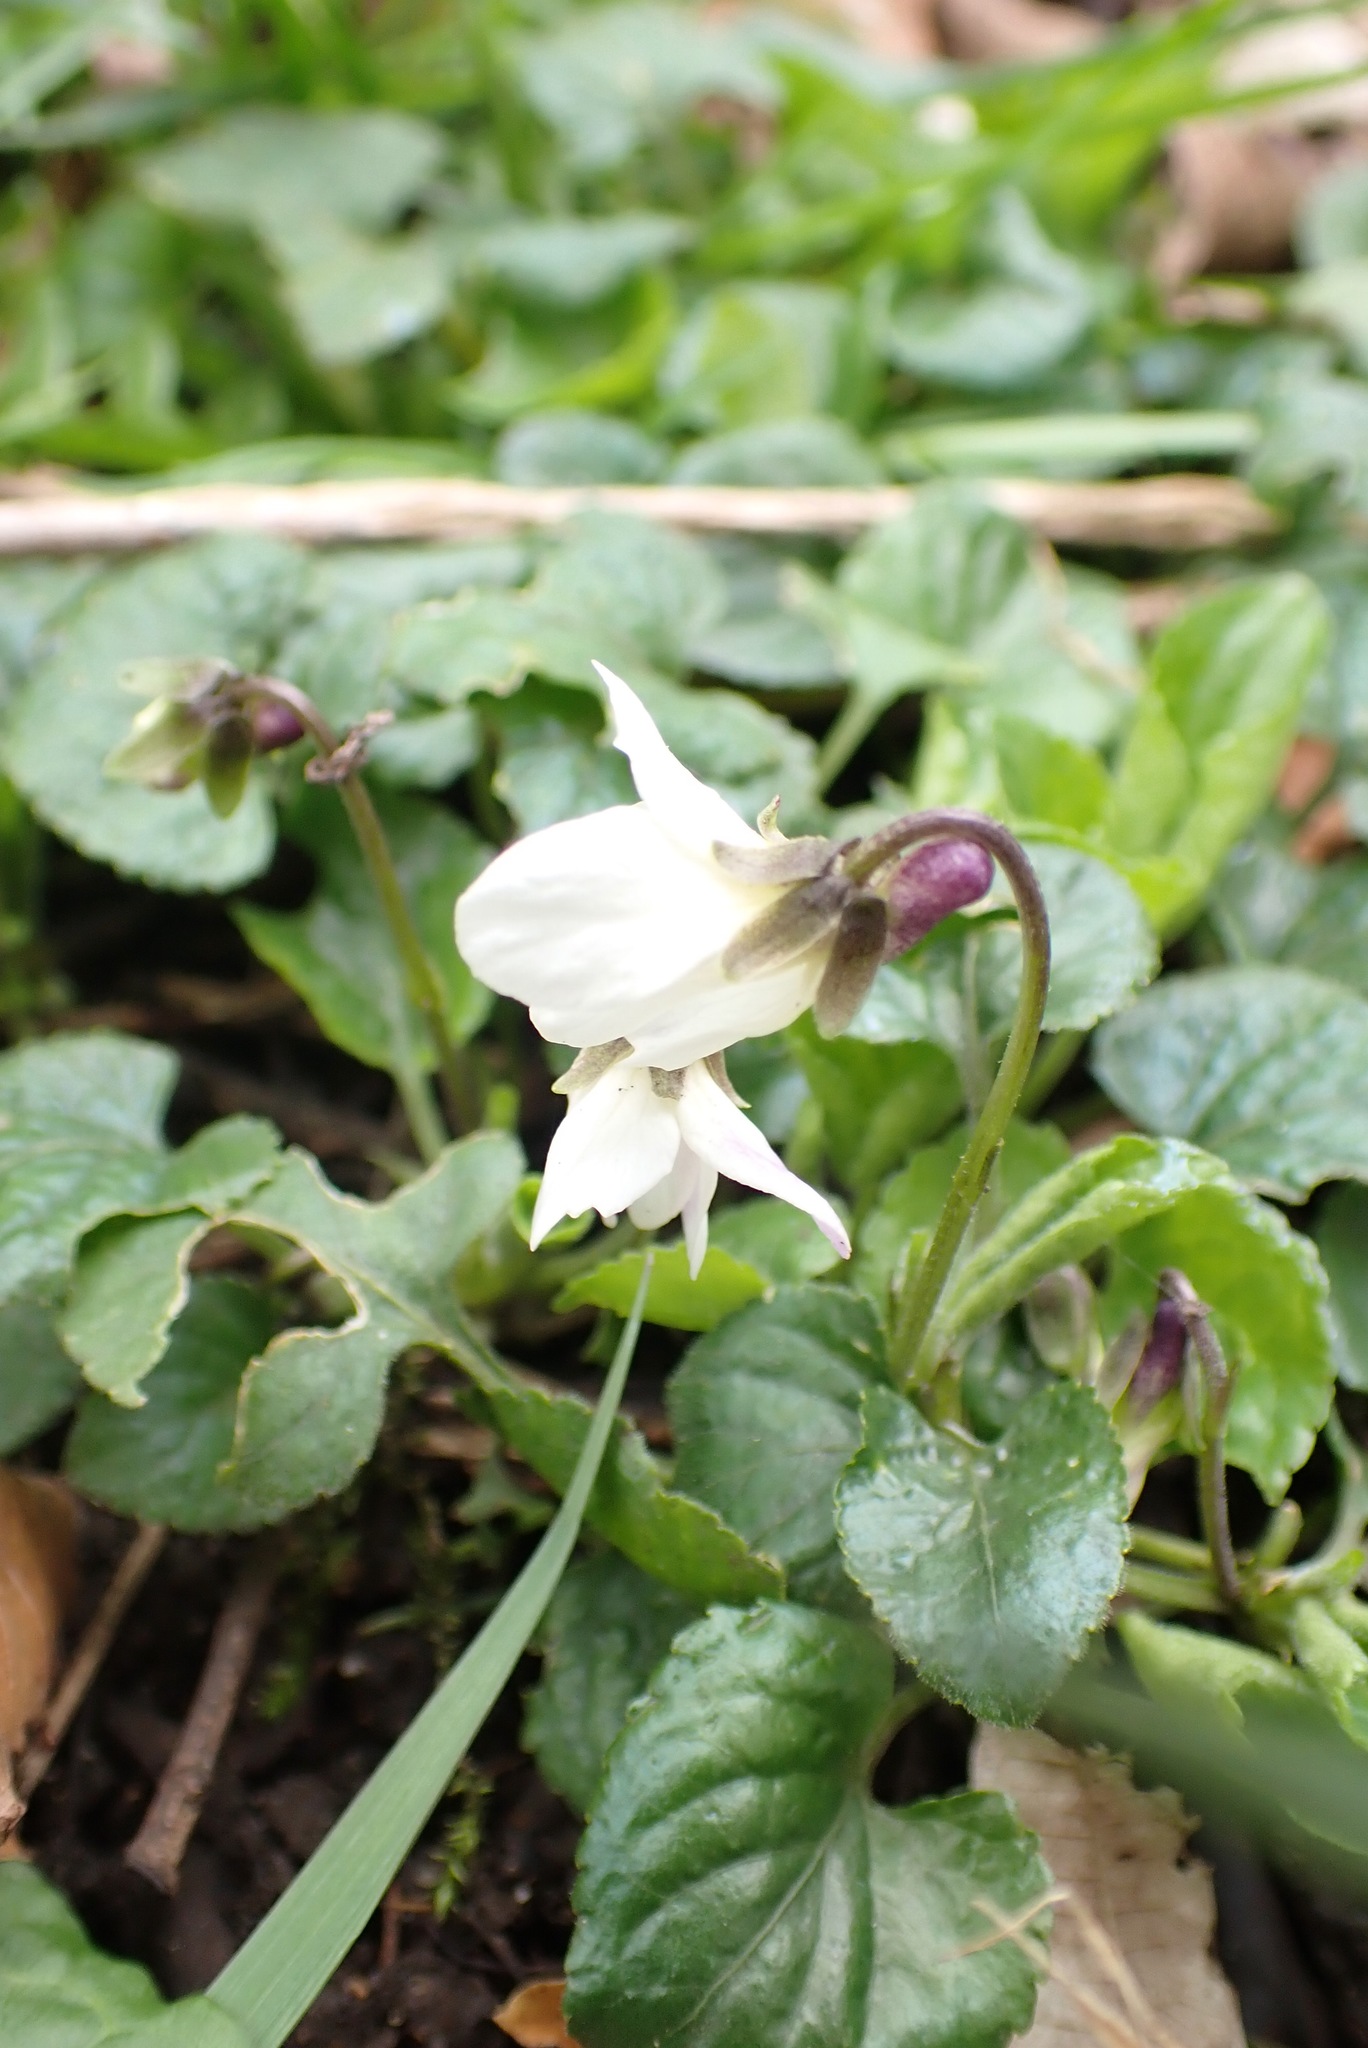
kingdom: Plantae
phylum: Tracheophyta
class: Magnoliopsida
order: Malpighiales
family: Violaceae
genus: Viola
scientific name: Viola odorata
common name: Sweet violet
